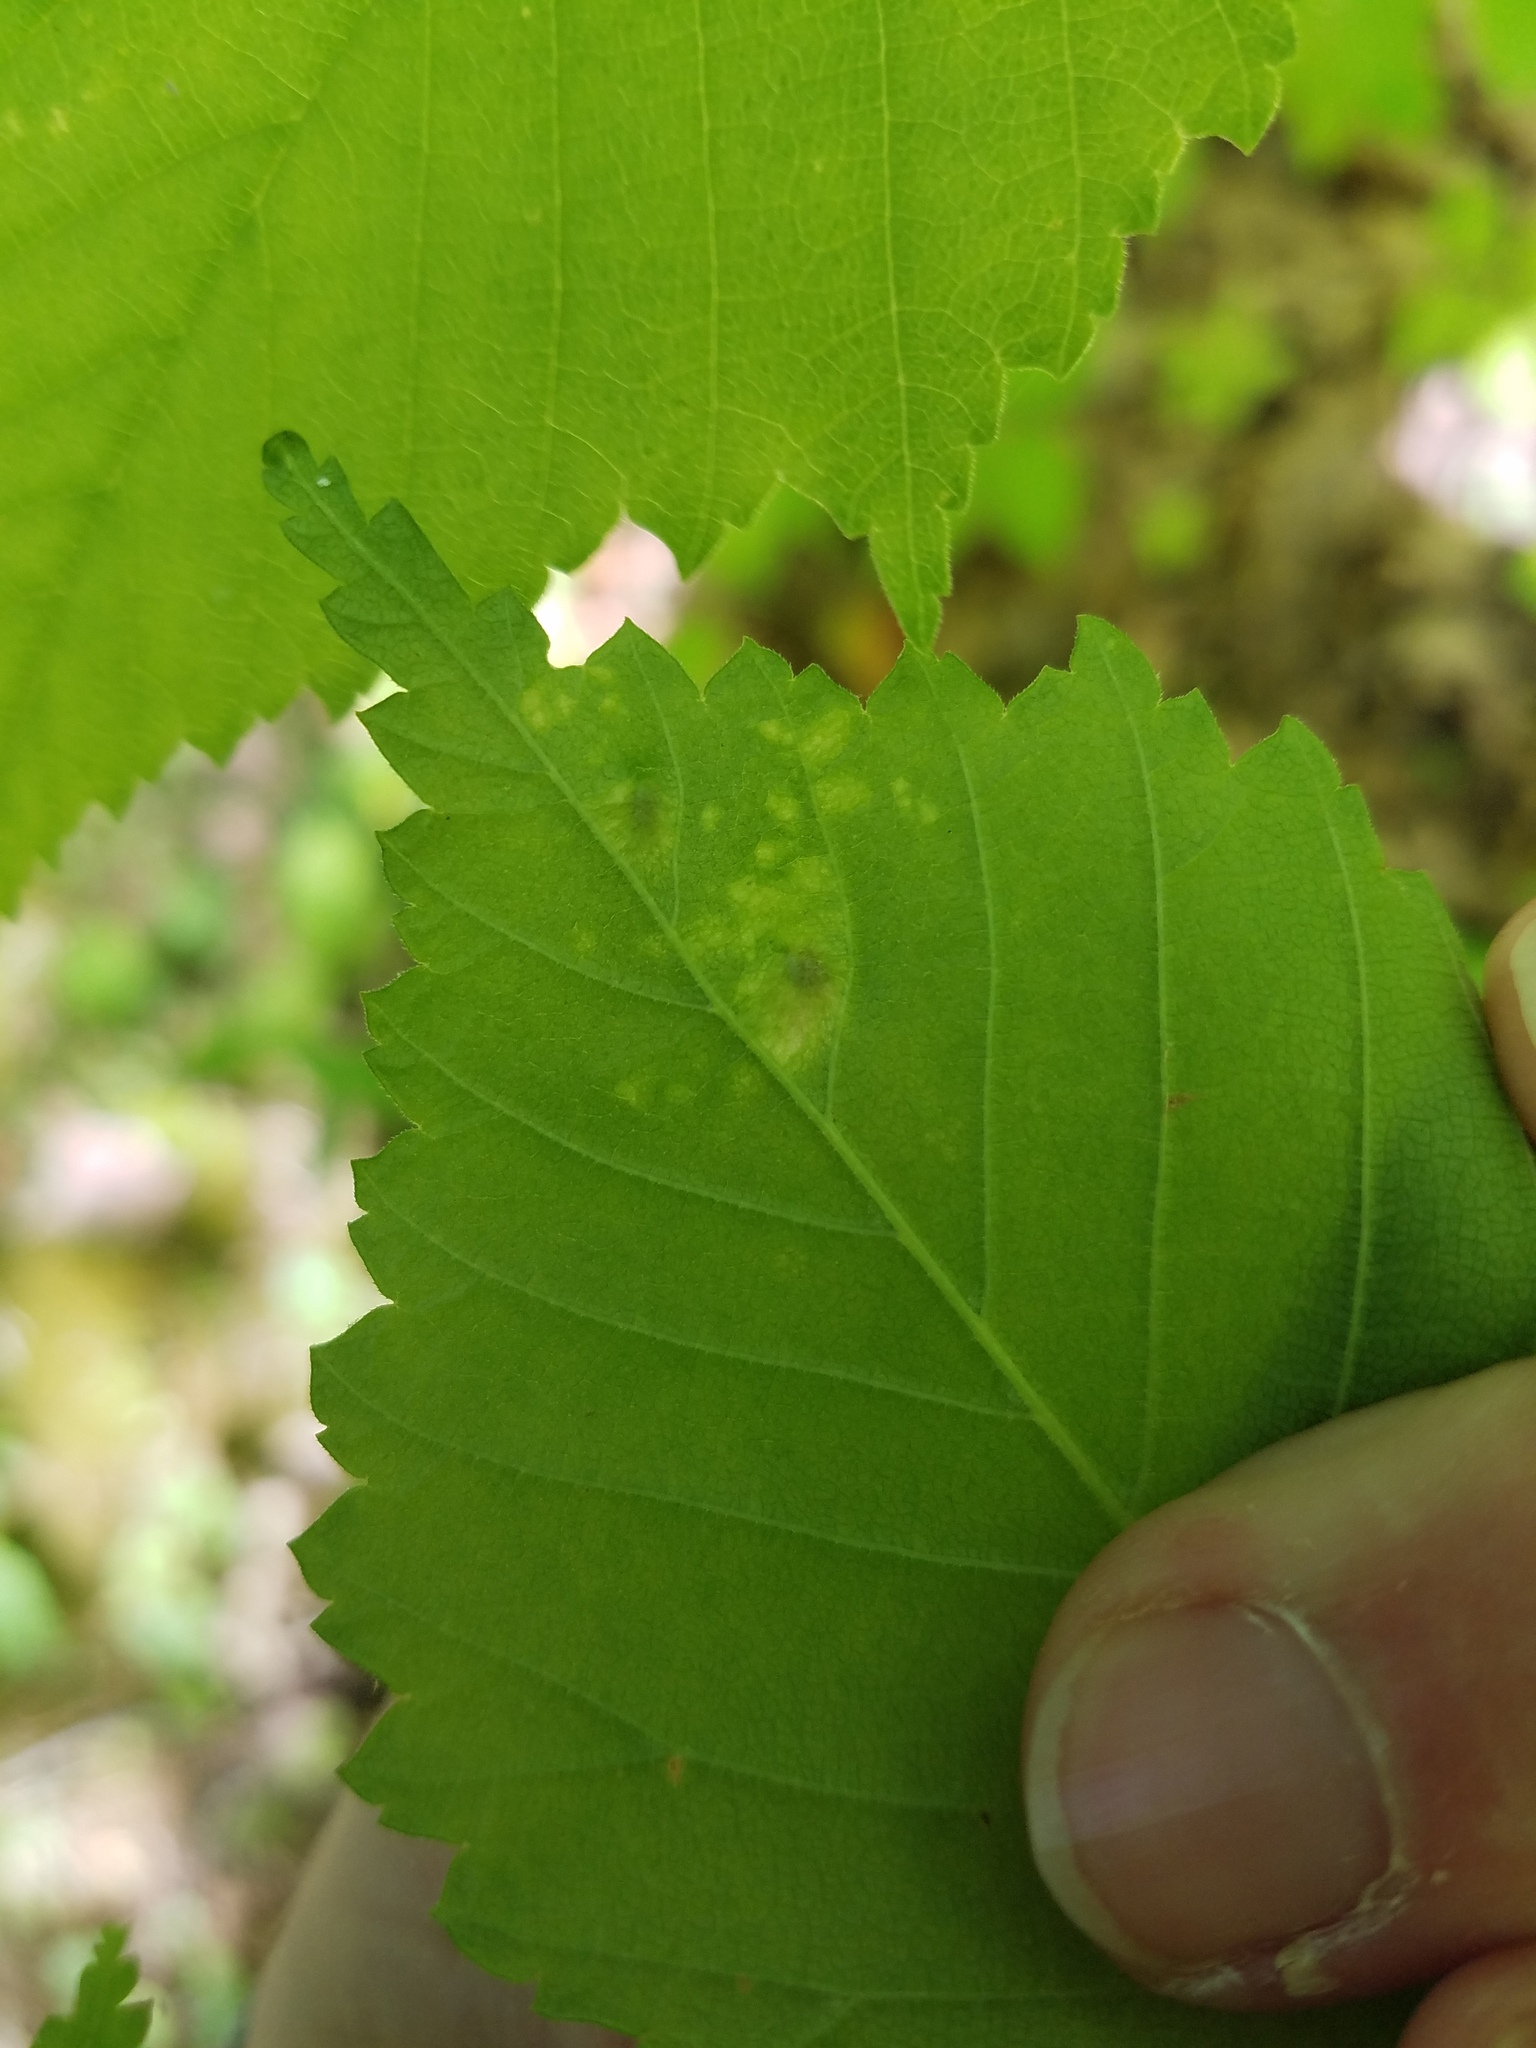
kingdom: Animalia
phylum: Arthropoda
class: Insecta
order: Hemiptera
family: Aphididae
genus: Tetraneura
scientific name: Tetraneura nigriabdominalis
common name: Aphid
